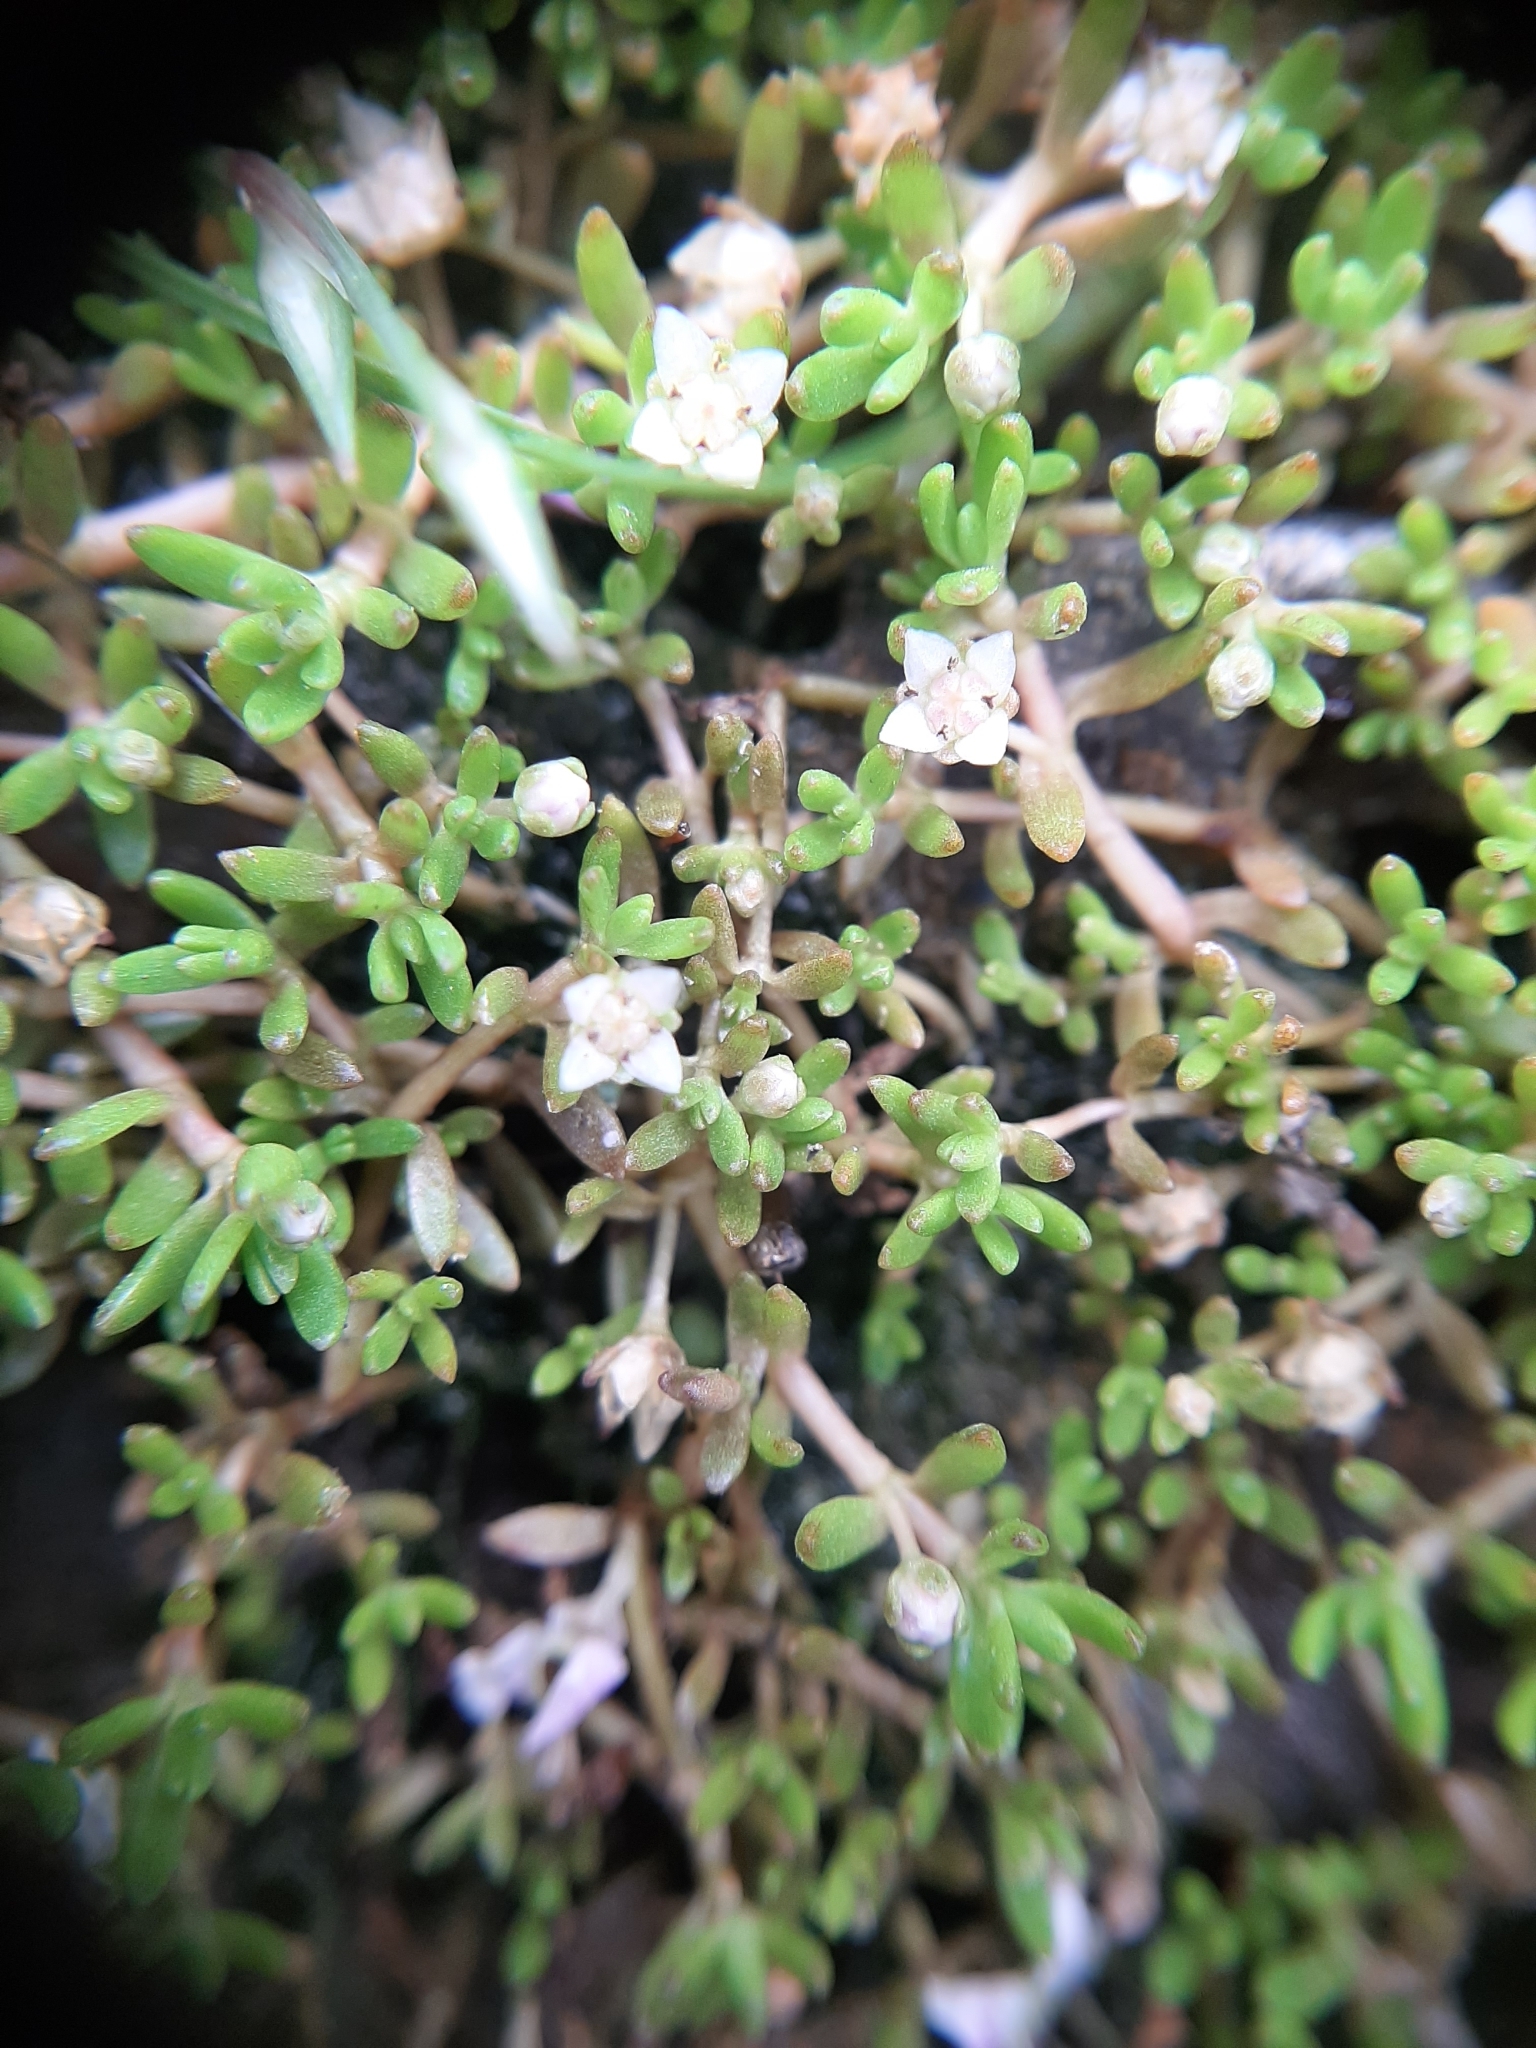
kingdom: Plantae
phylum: Tracheophyta
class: Magnoliopsida
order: Saxifragales
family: Crassulaceae
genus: Crassula
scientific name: Crassula sinclairii
